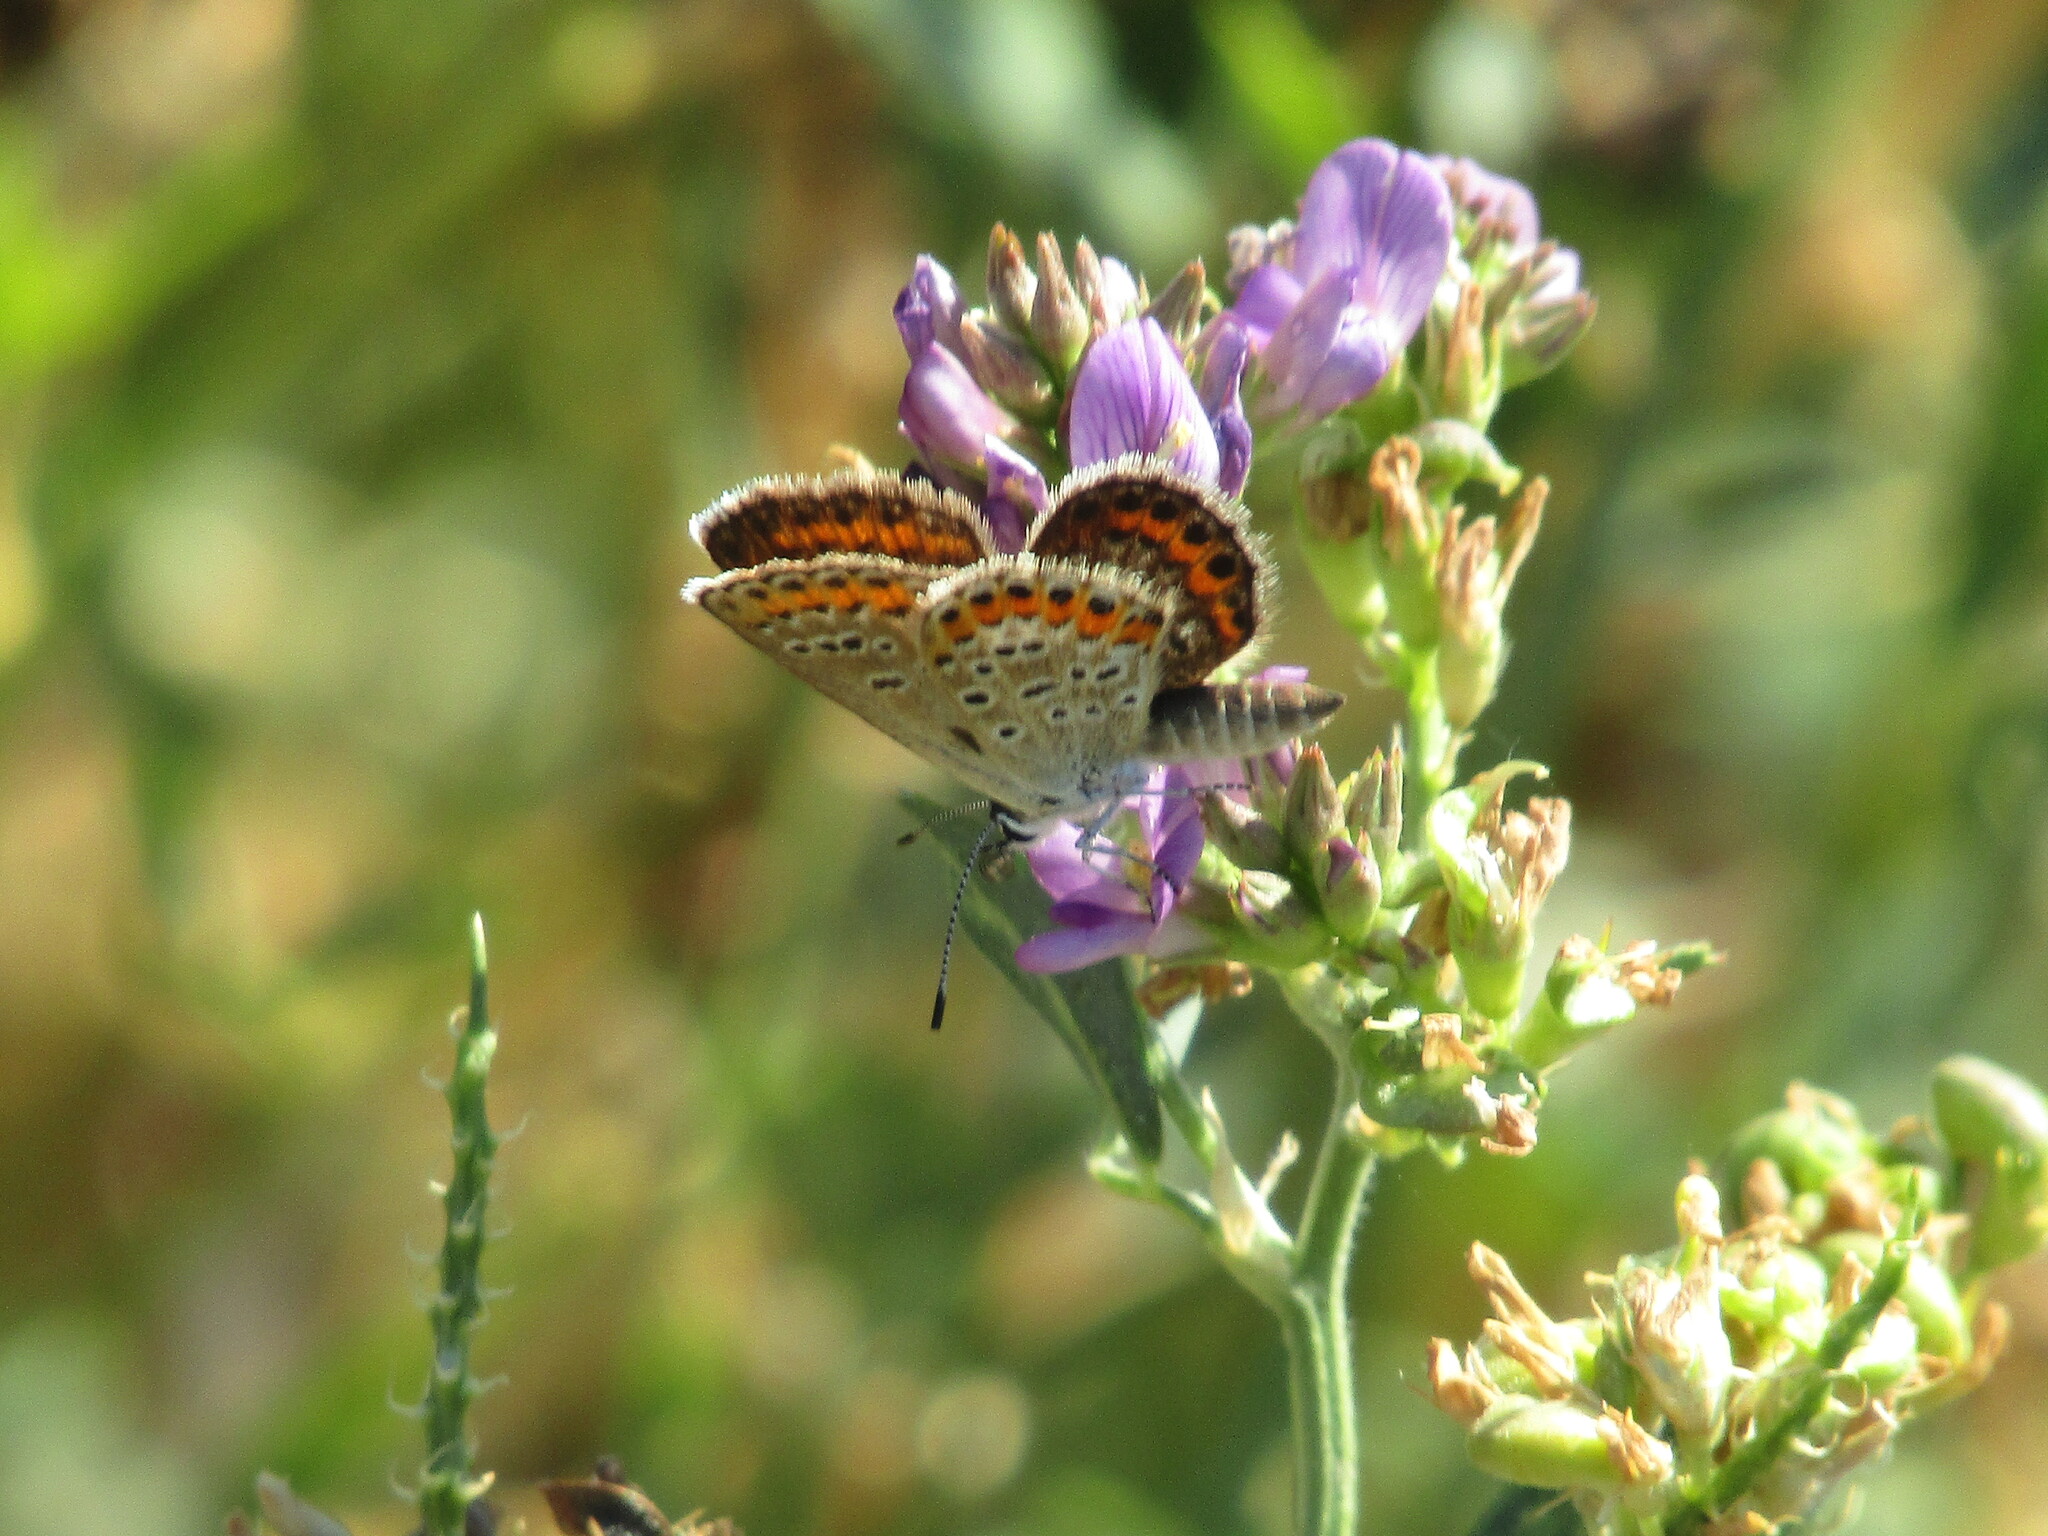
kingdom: Animalia
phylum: Arthropoda
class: Insecta
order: Lepidoptera
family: Lycaenidae
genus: Plebejus
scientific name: Plebejus argus
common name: Silver-studded blue
